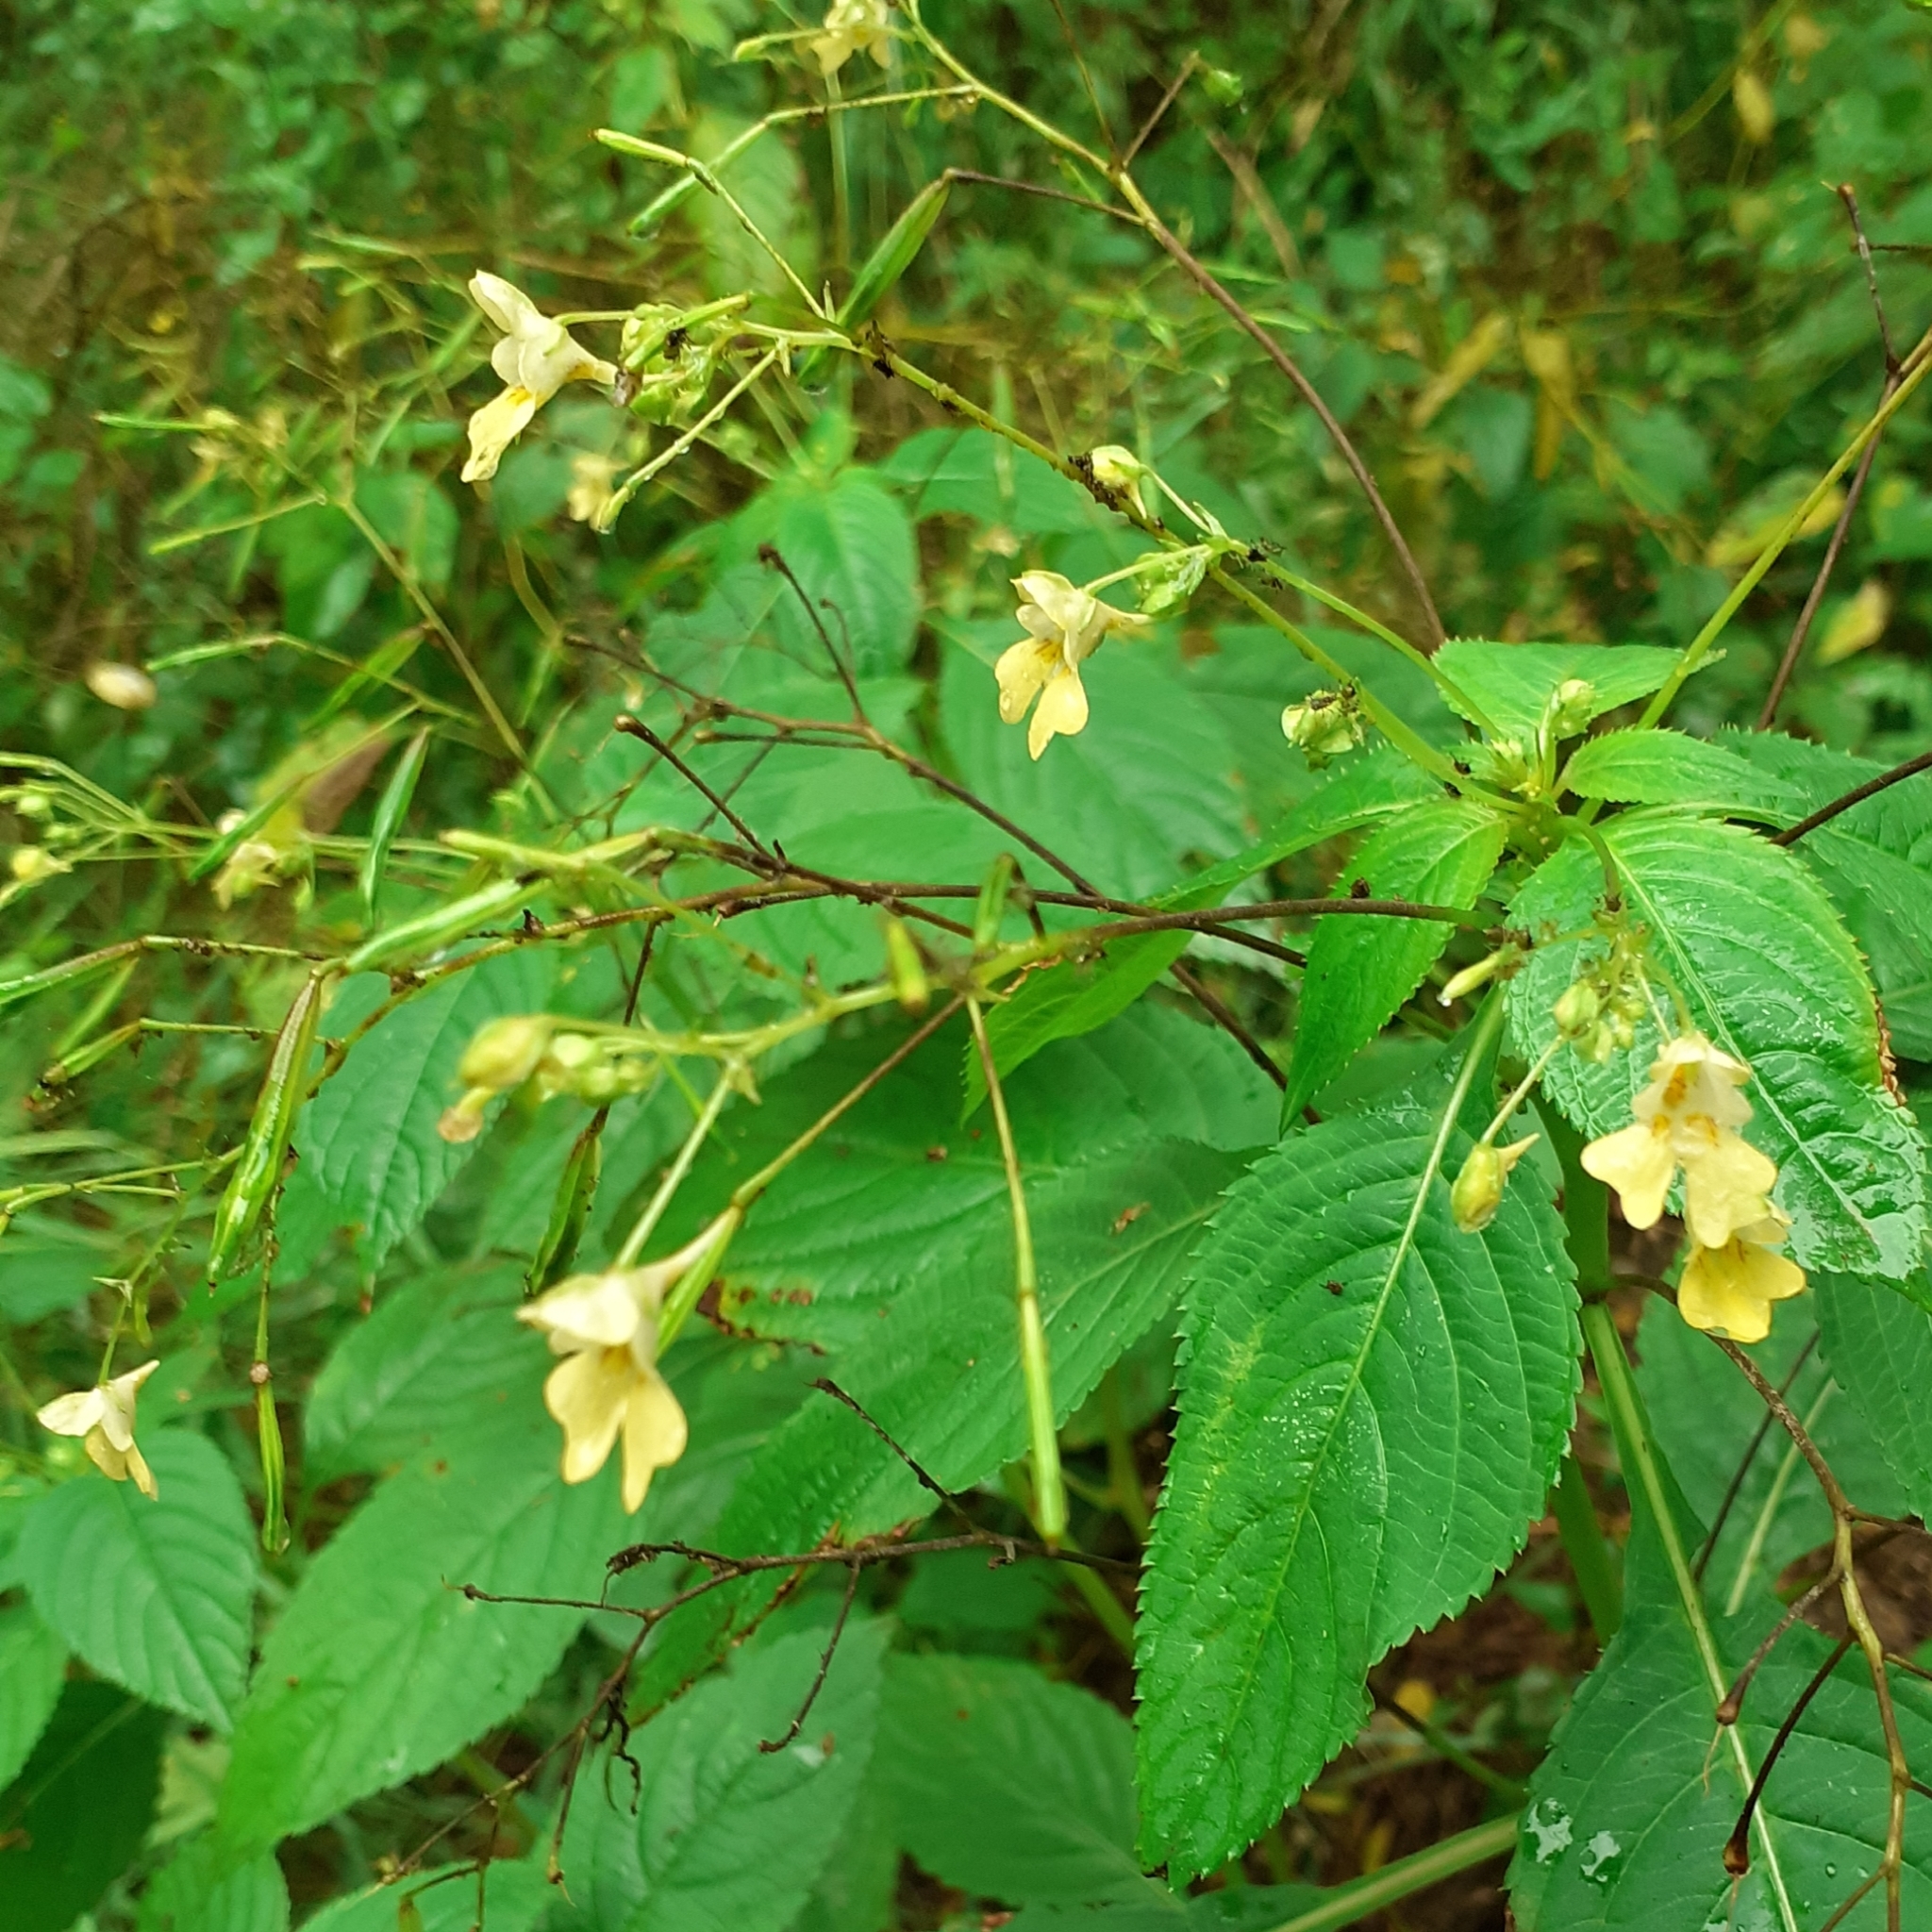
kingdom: Plantae
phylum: Tracheophyta
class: Magnoliopsida
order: Ericales
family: Balsaminaceae
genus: Impatiens
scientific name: Impatiens parviflora
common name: Small balsam
